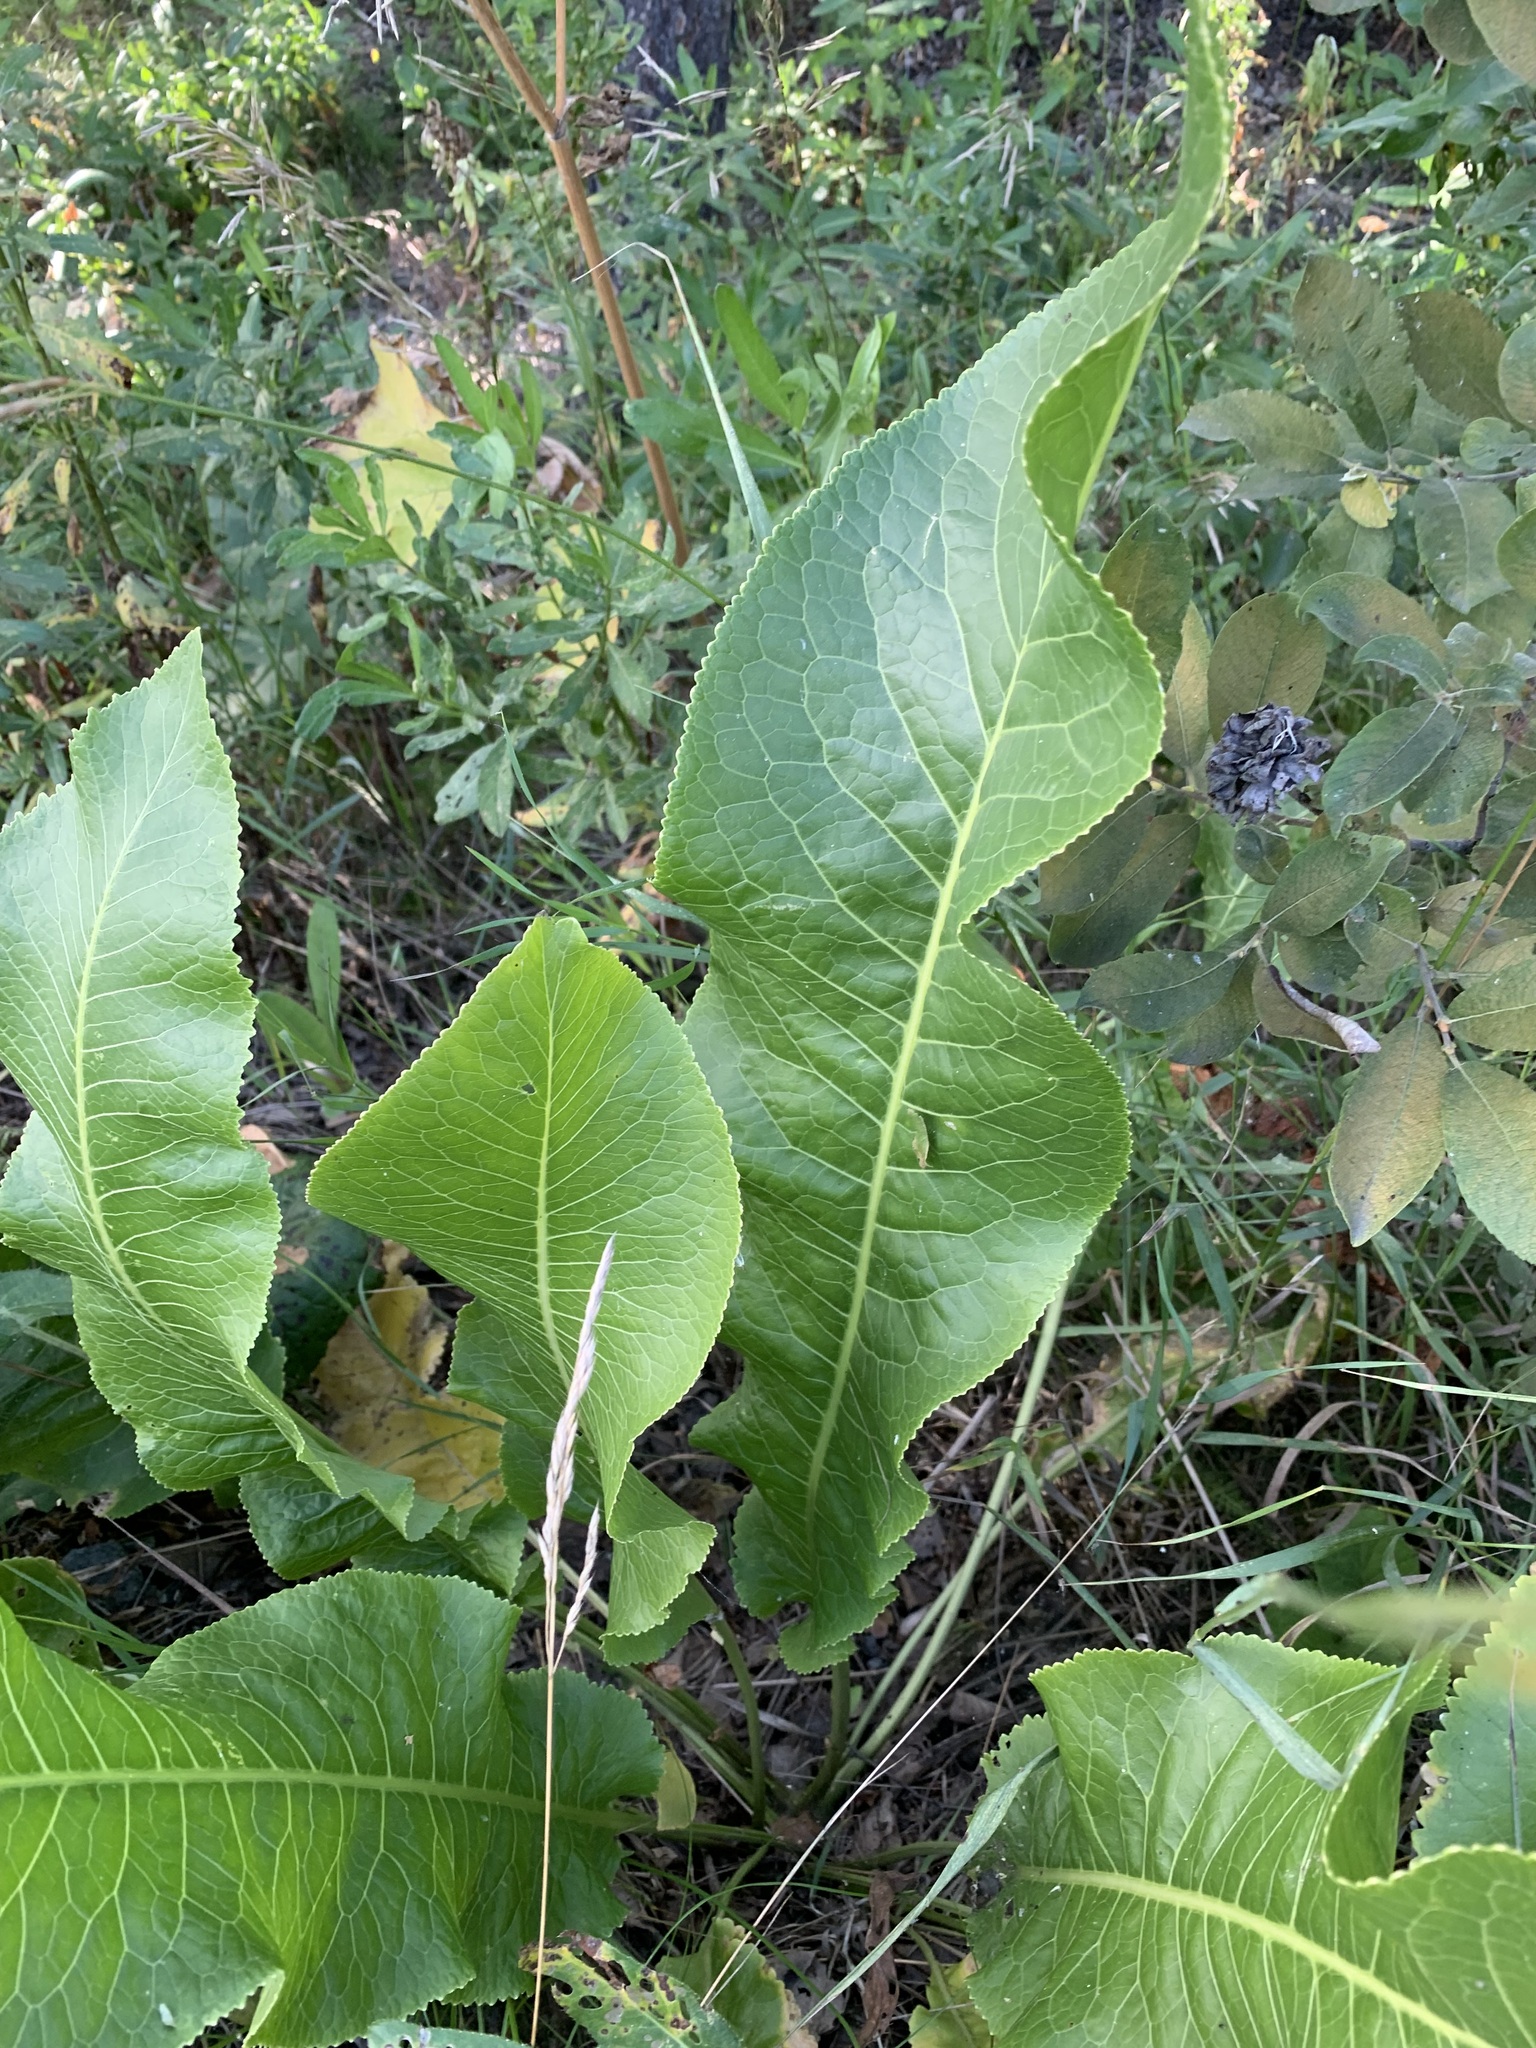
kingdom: Plantae
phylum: Tracheophyta
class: Magnoliopsida
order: Brassicales
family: Brassicaceae
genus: Armoracia
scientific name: Armoracia rusticana
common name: Horseradish
